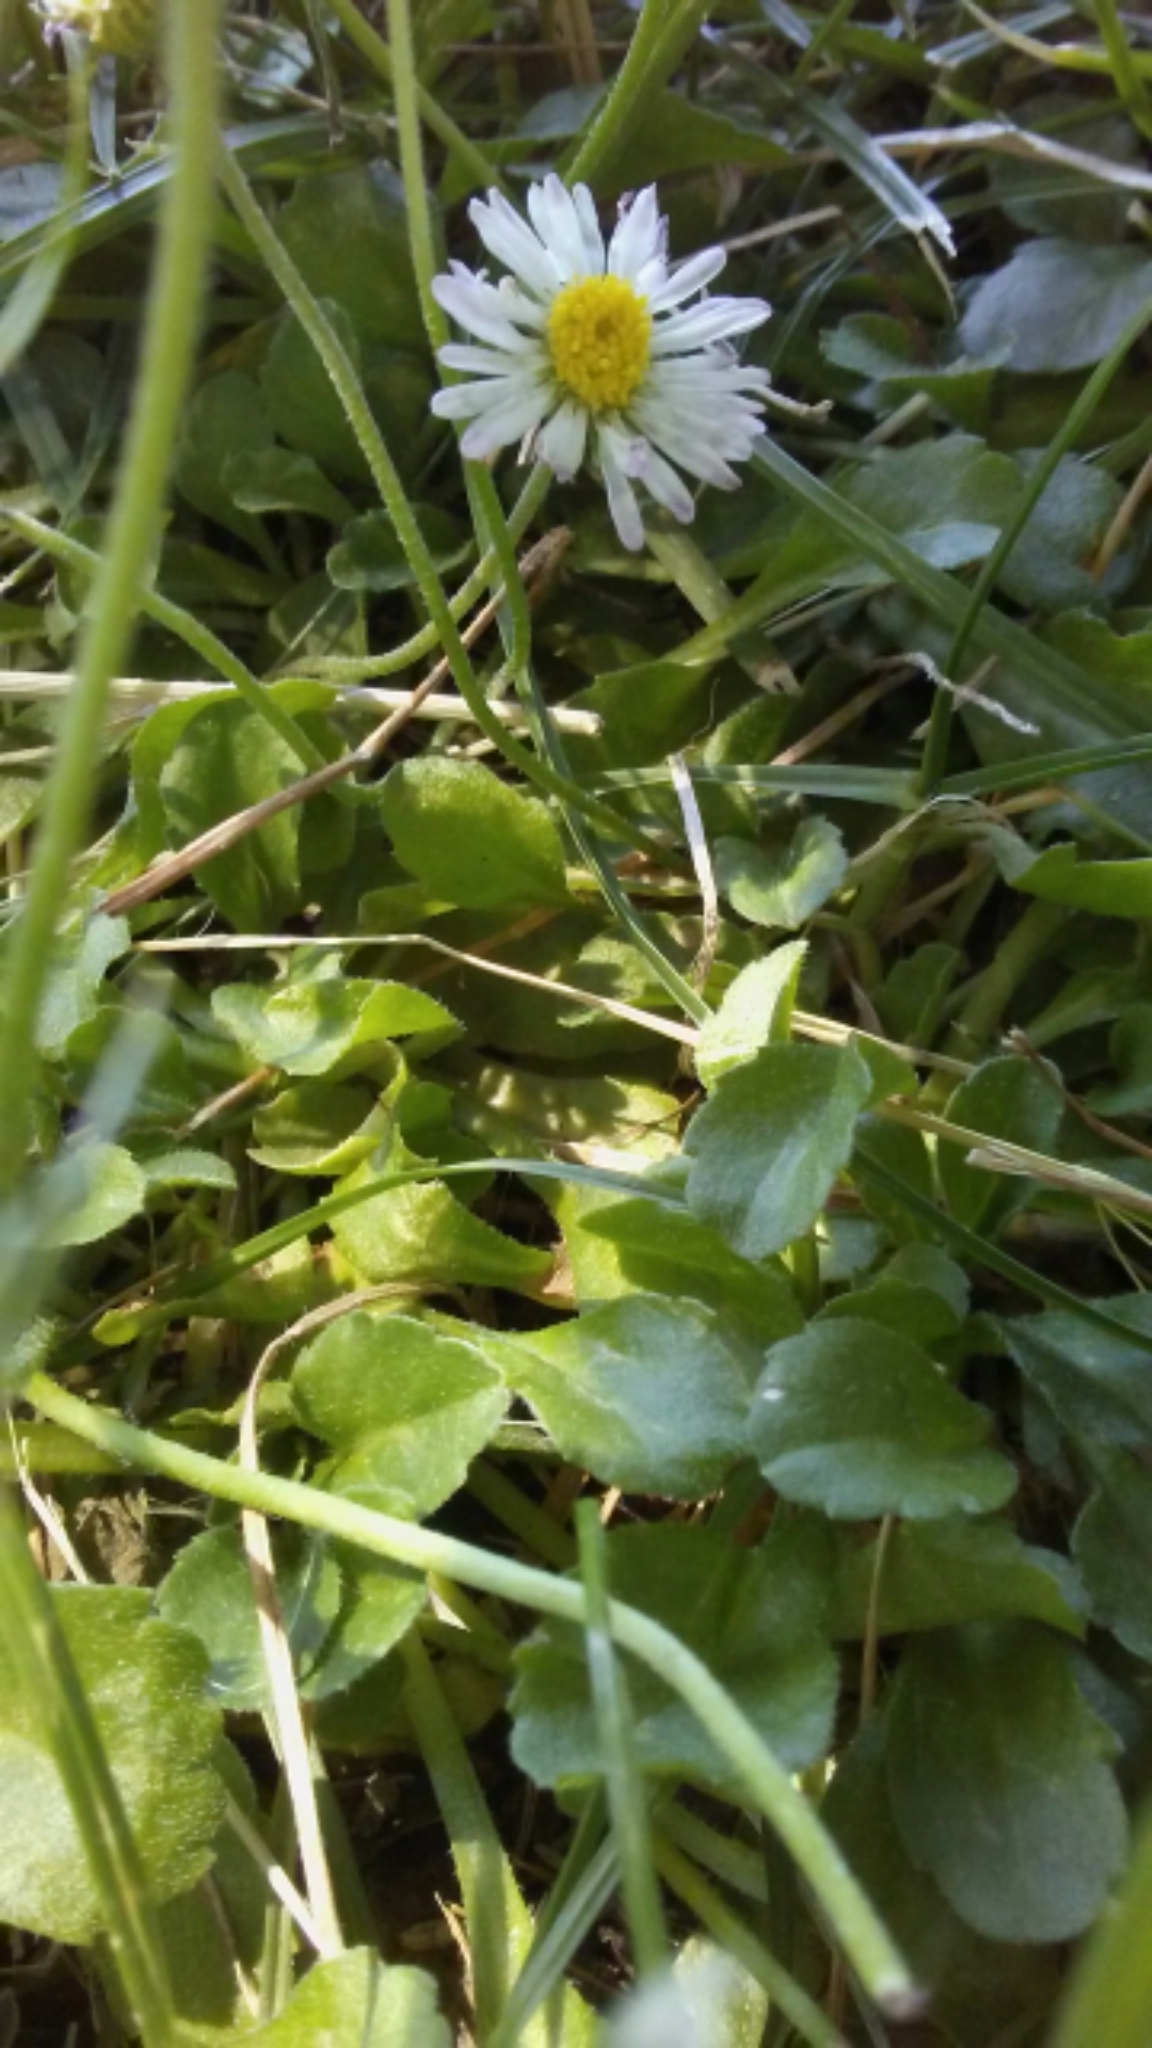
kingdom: Plantae
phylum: Tracheophyta
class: Magnoliopsida
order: Asterales
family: Asteraceae
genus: Bellis
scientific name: Bellis perennis
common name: Lawndaisy
